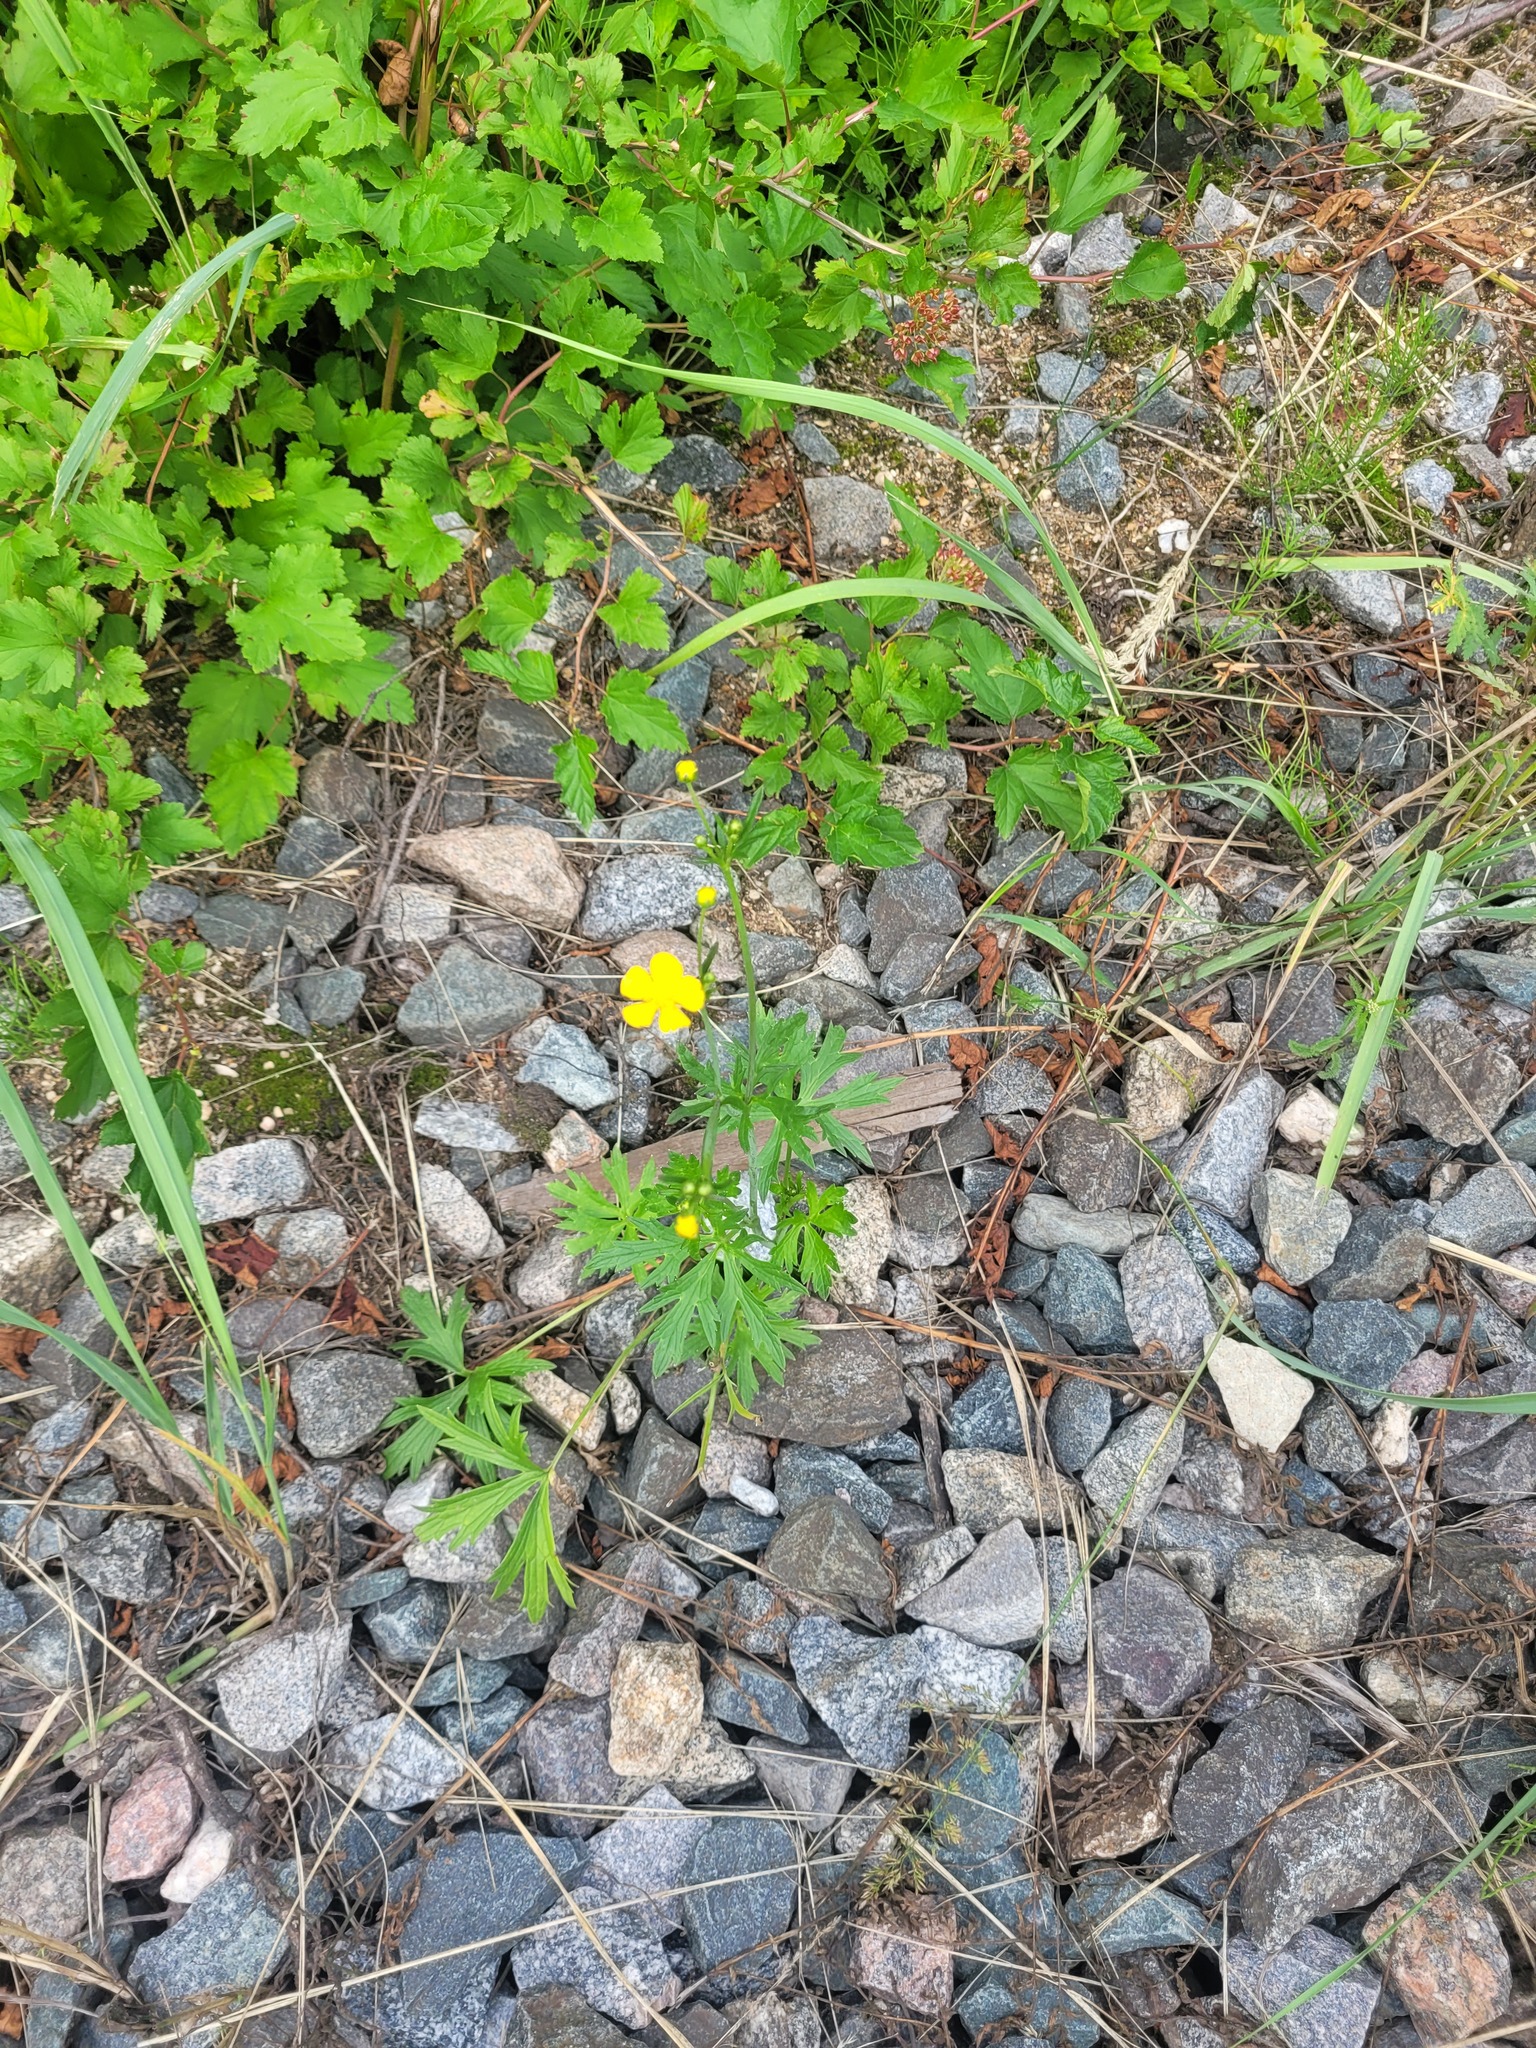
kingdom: Plantae
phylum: Tracheophyta
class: Magnoliopsida
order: Ranunculales
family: Ranunculaceae
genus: Ranunculus
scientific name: Ranunculus acris
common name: Meadow buttercup
